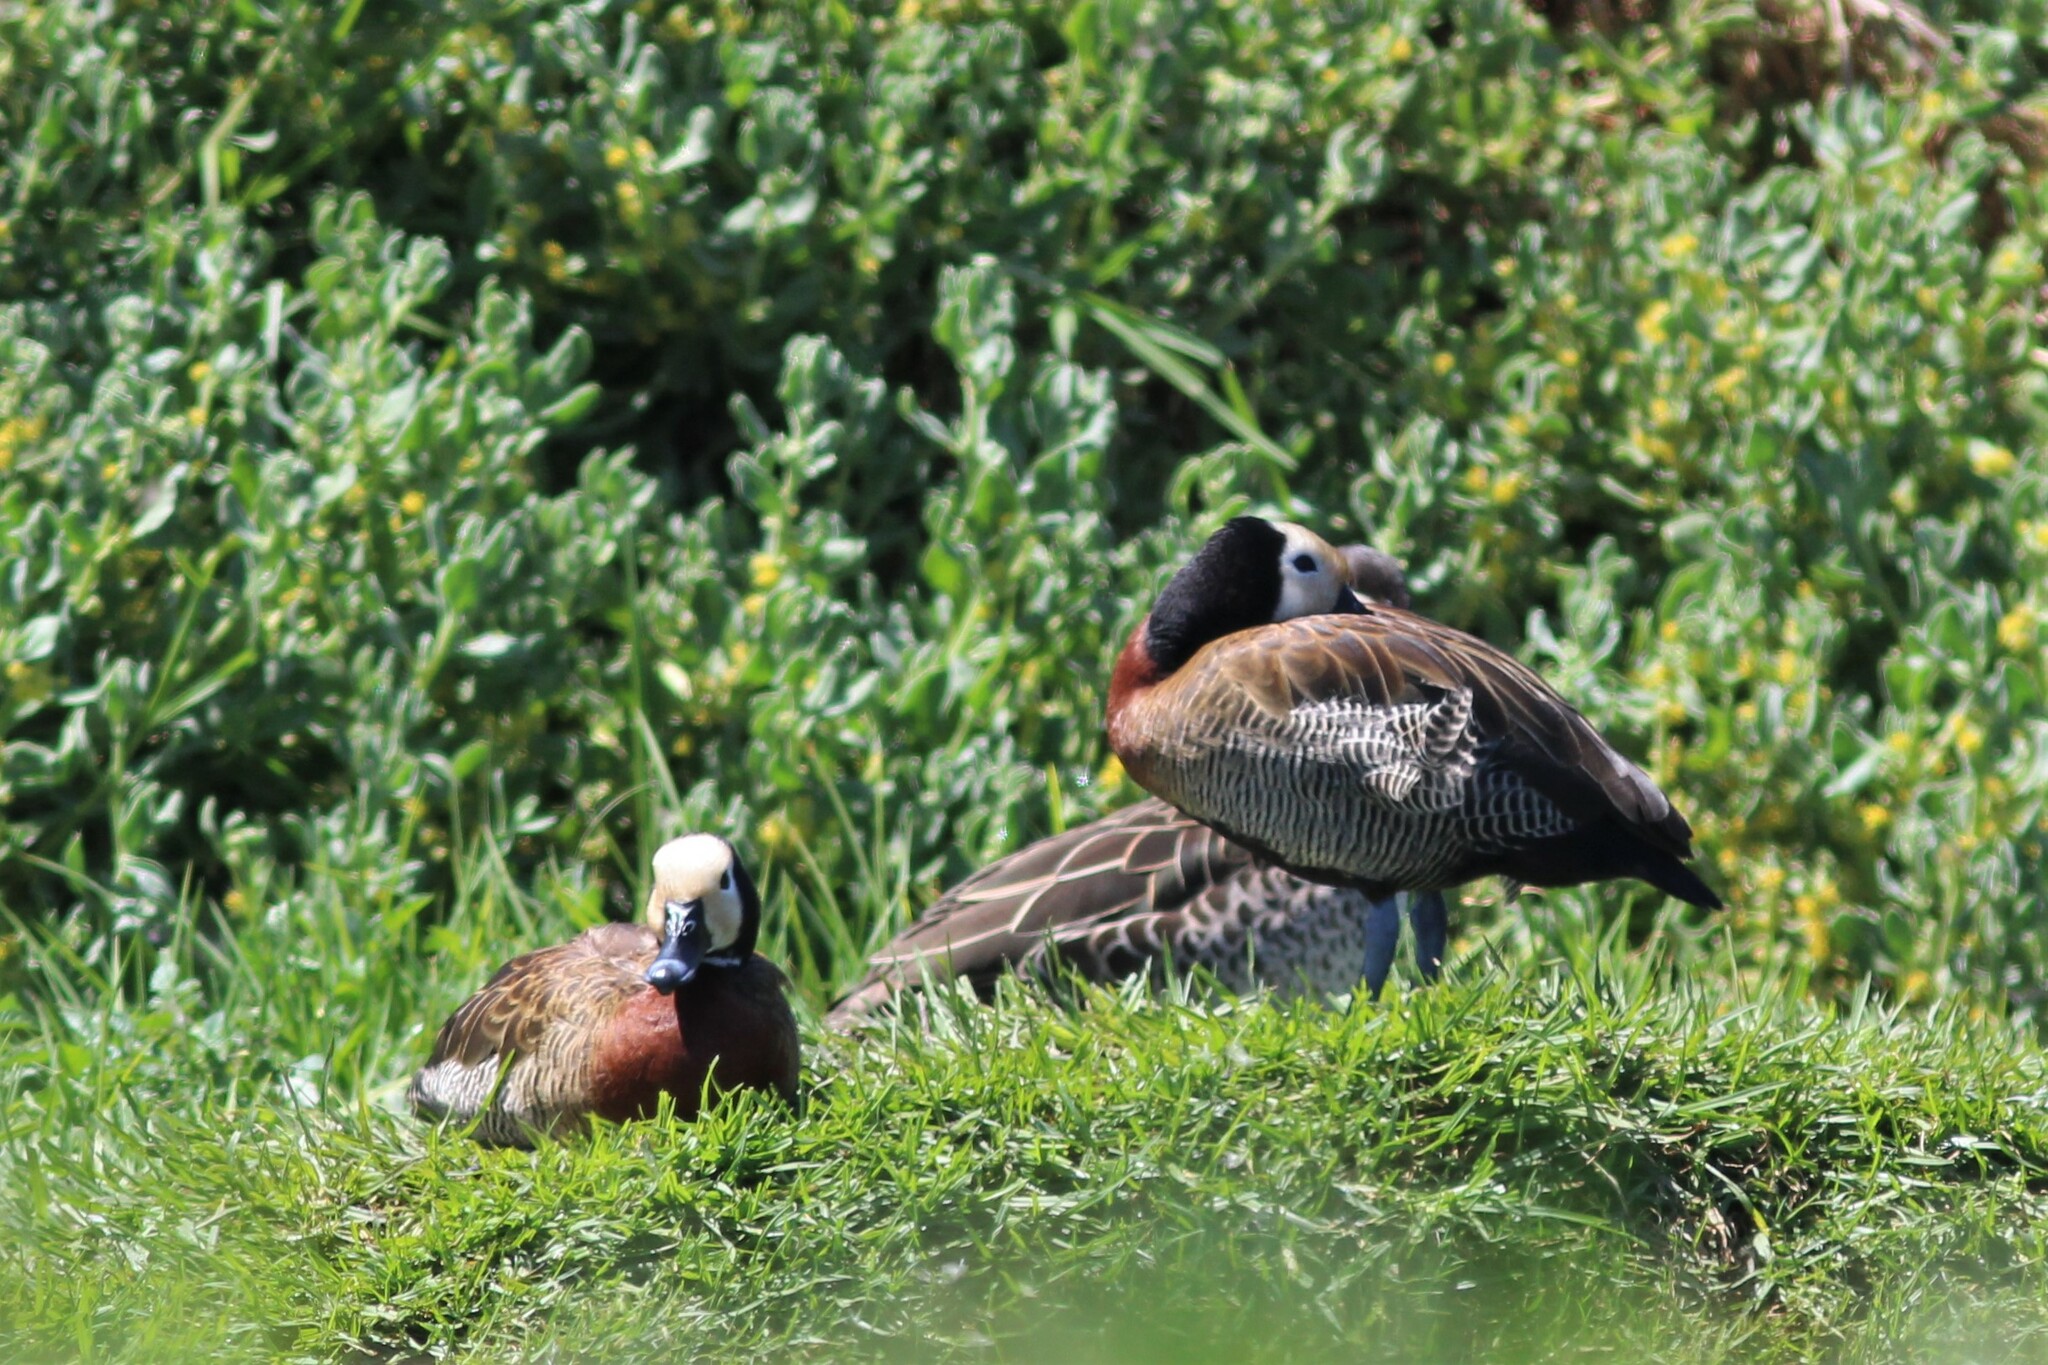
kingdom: Animalia
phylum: Chordata
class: Aves
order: Anseriformes
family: Anatidae
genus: Dendrocygna
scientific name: Dendrocygna viduata
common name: White-faced whistling duck
